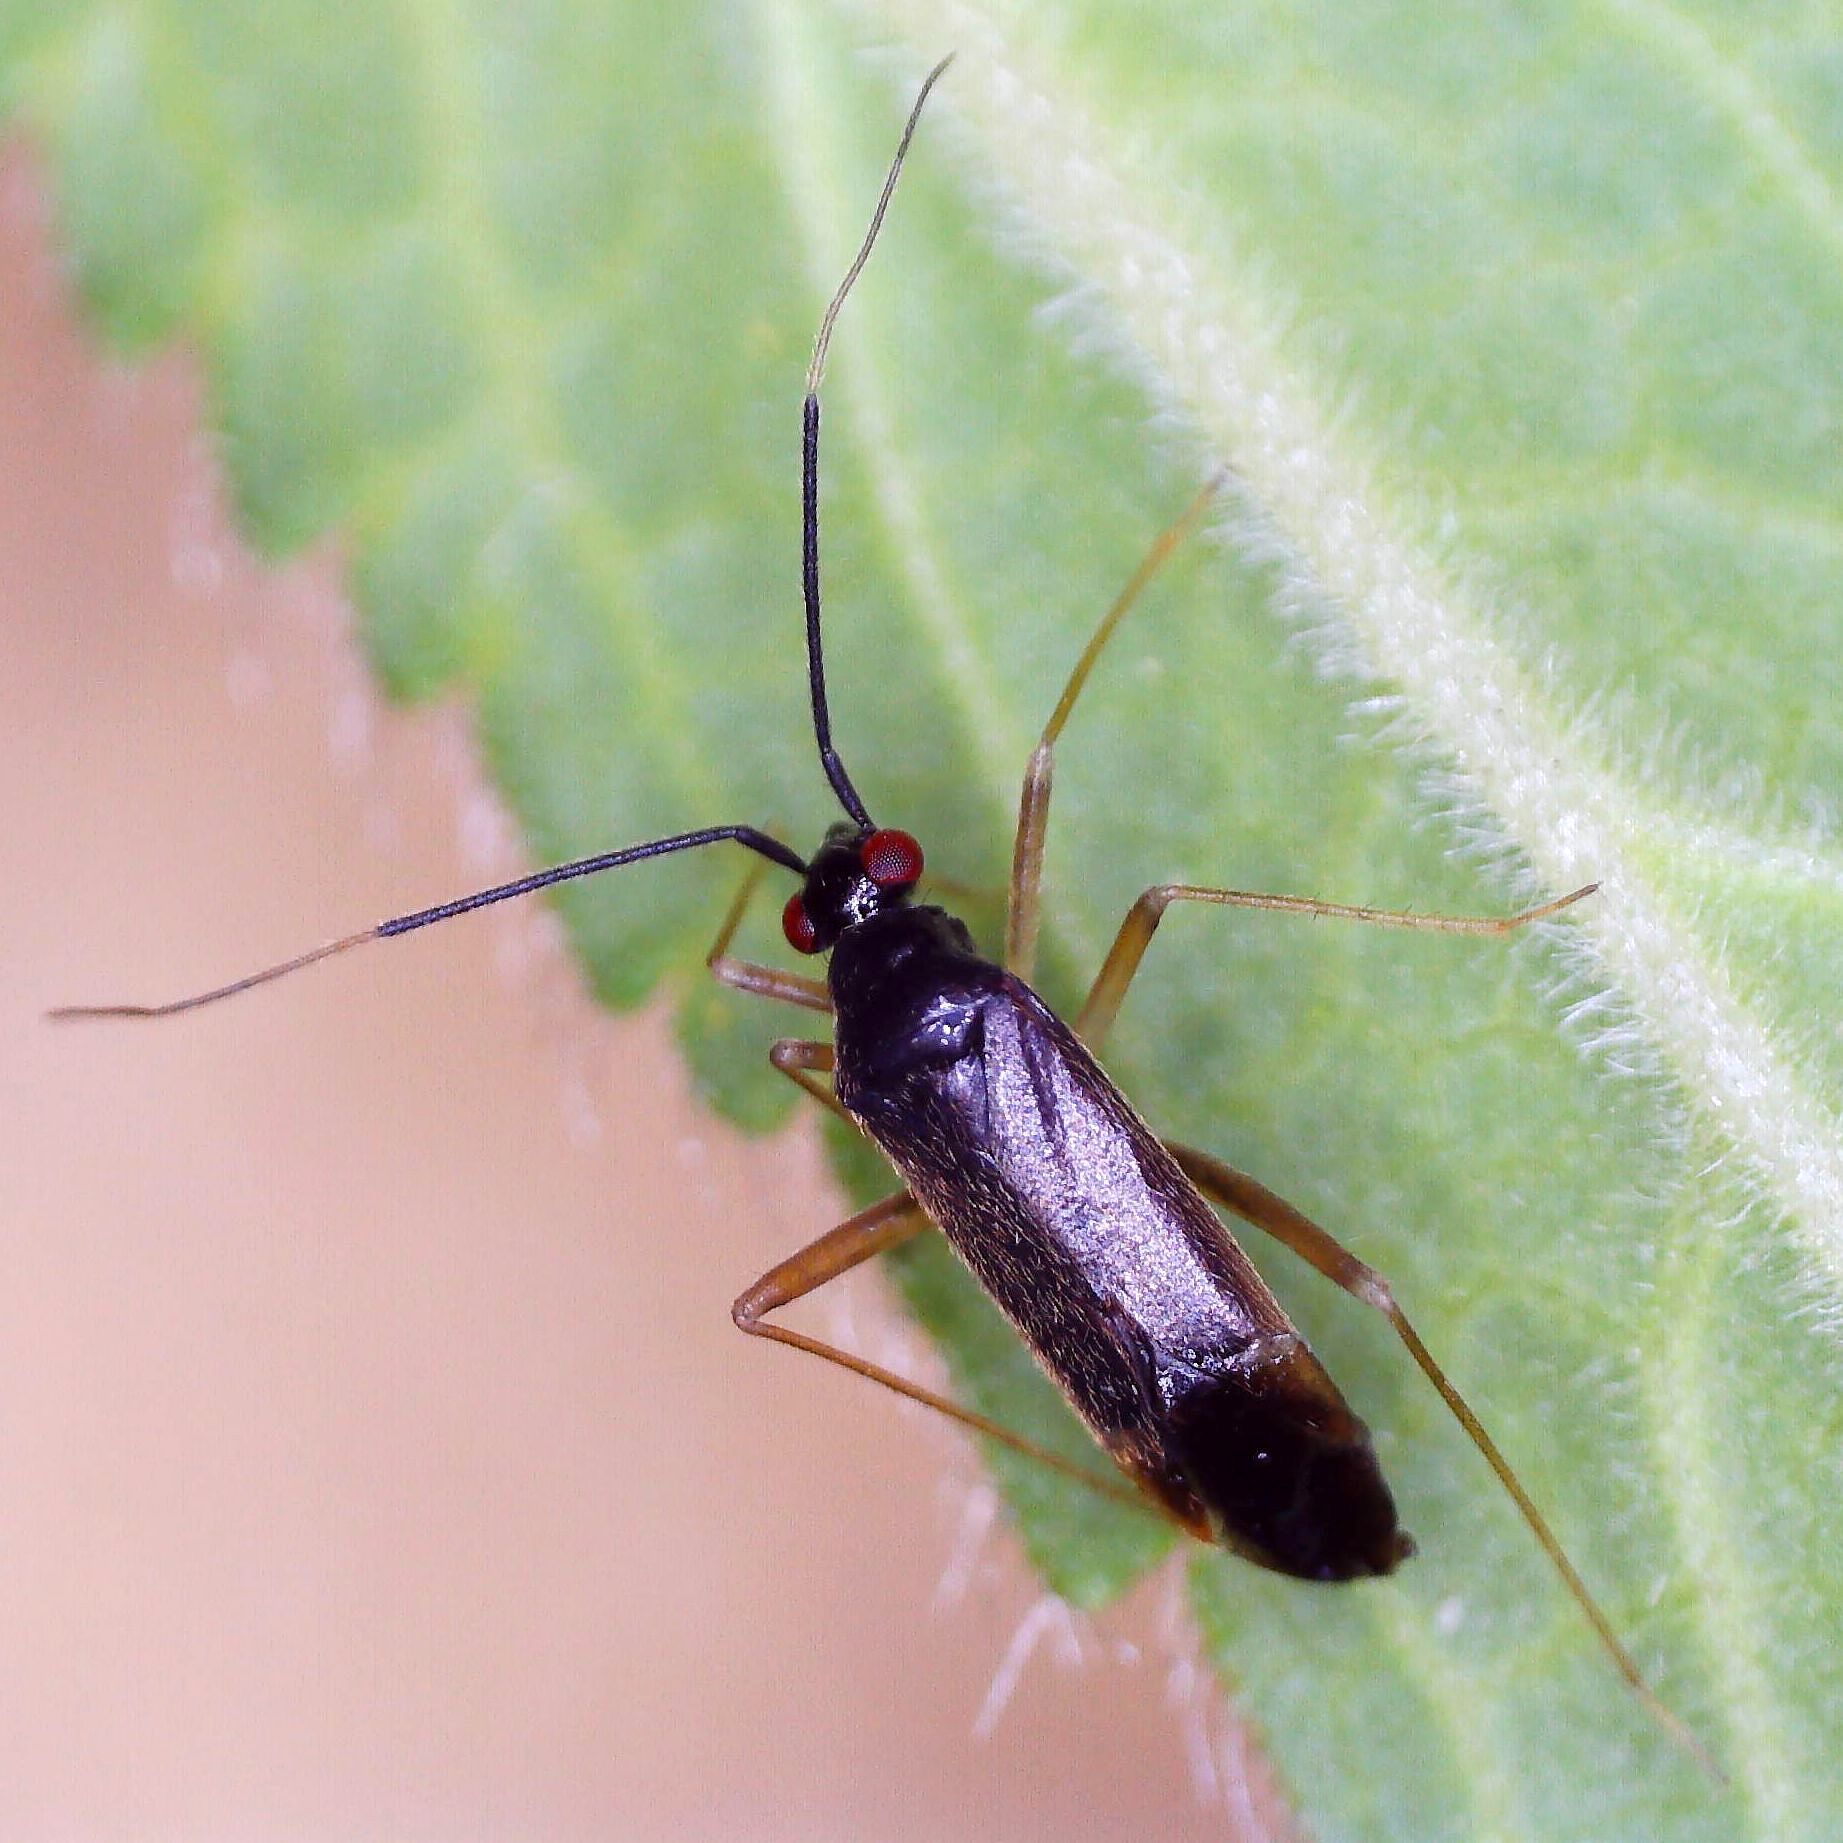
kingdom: Animalia
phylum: Arthropoda
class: Insecta
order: Hemiptera
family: Miridae
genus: Orthonotus
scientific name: Orthonotus rufifrons
